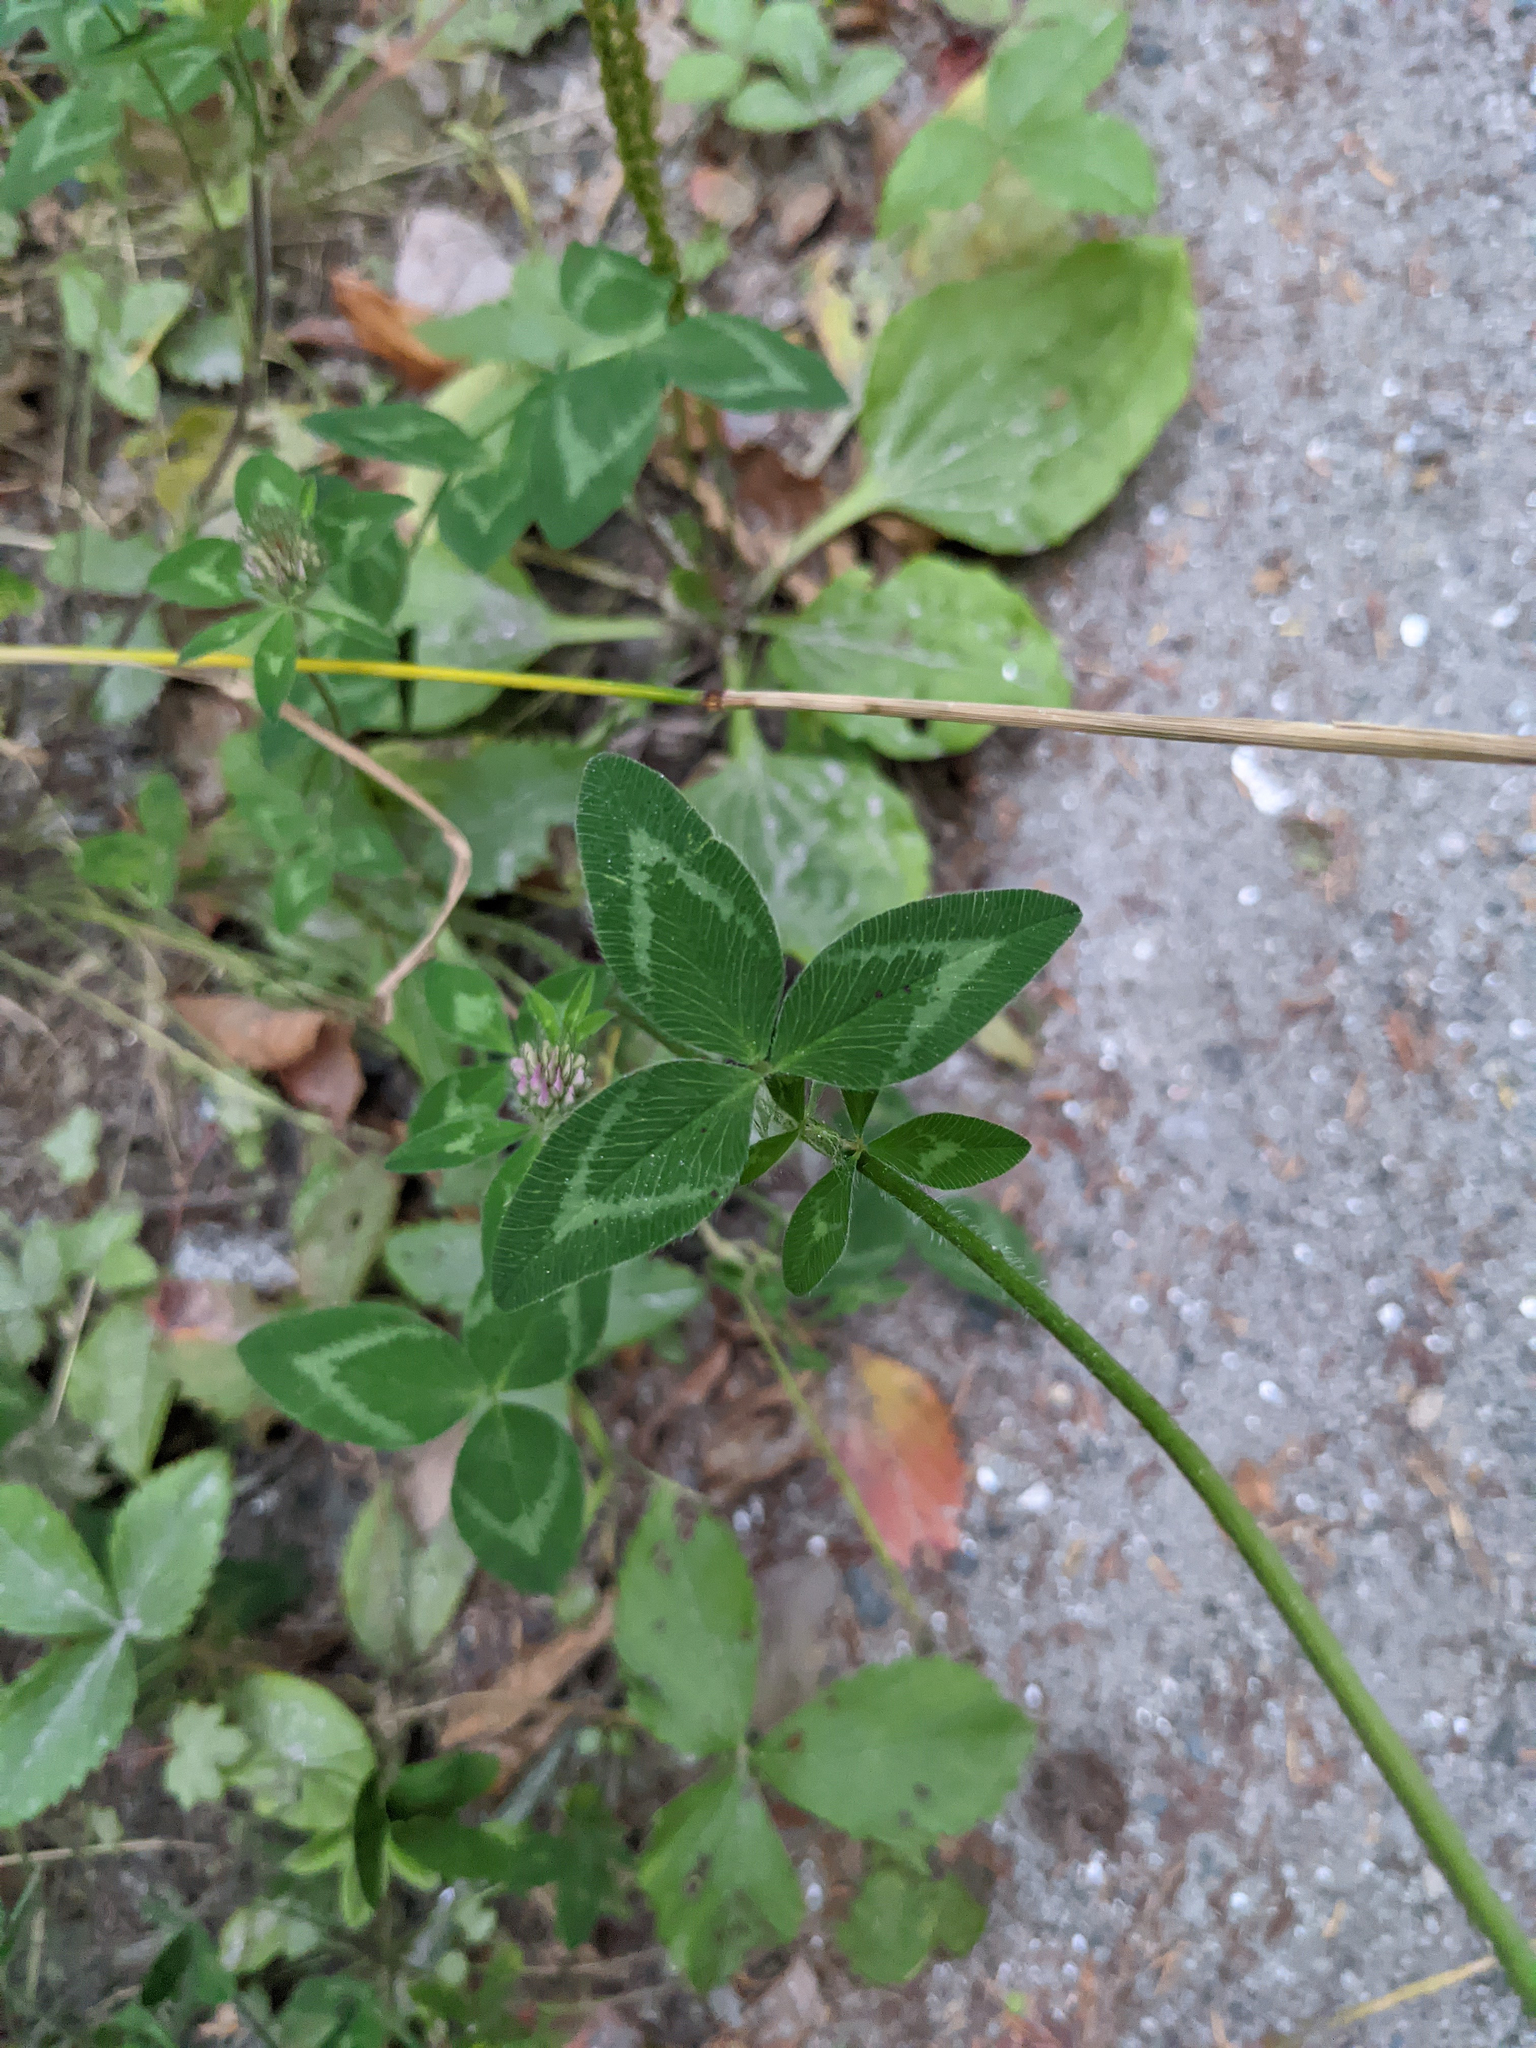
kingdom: Plantae
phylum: Tracheophyta
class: Magnoliopsida
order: Fabales
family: Fabaceae
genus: Trifolium
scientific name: Trifolium pratense
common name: Red clover
